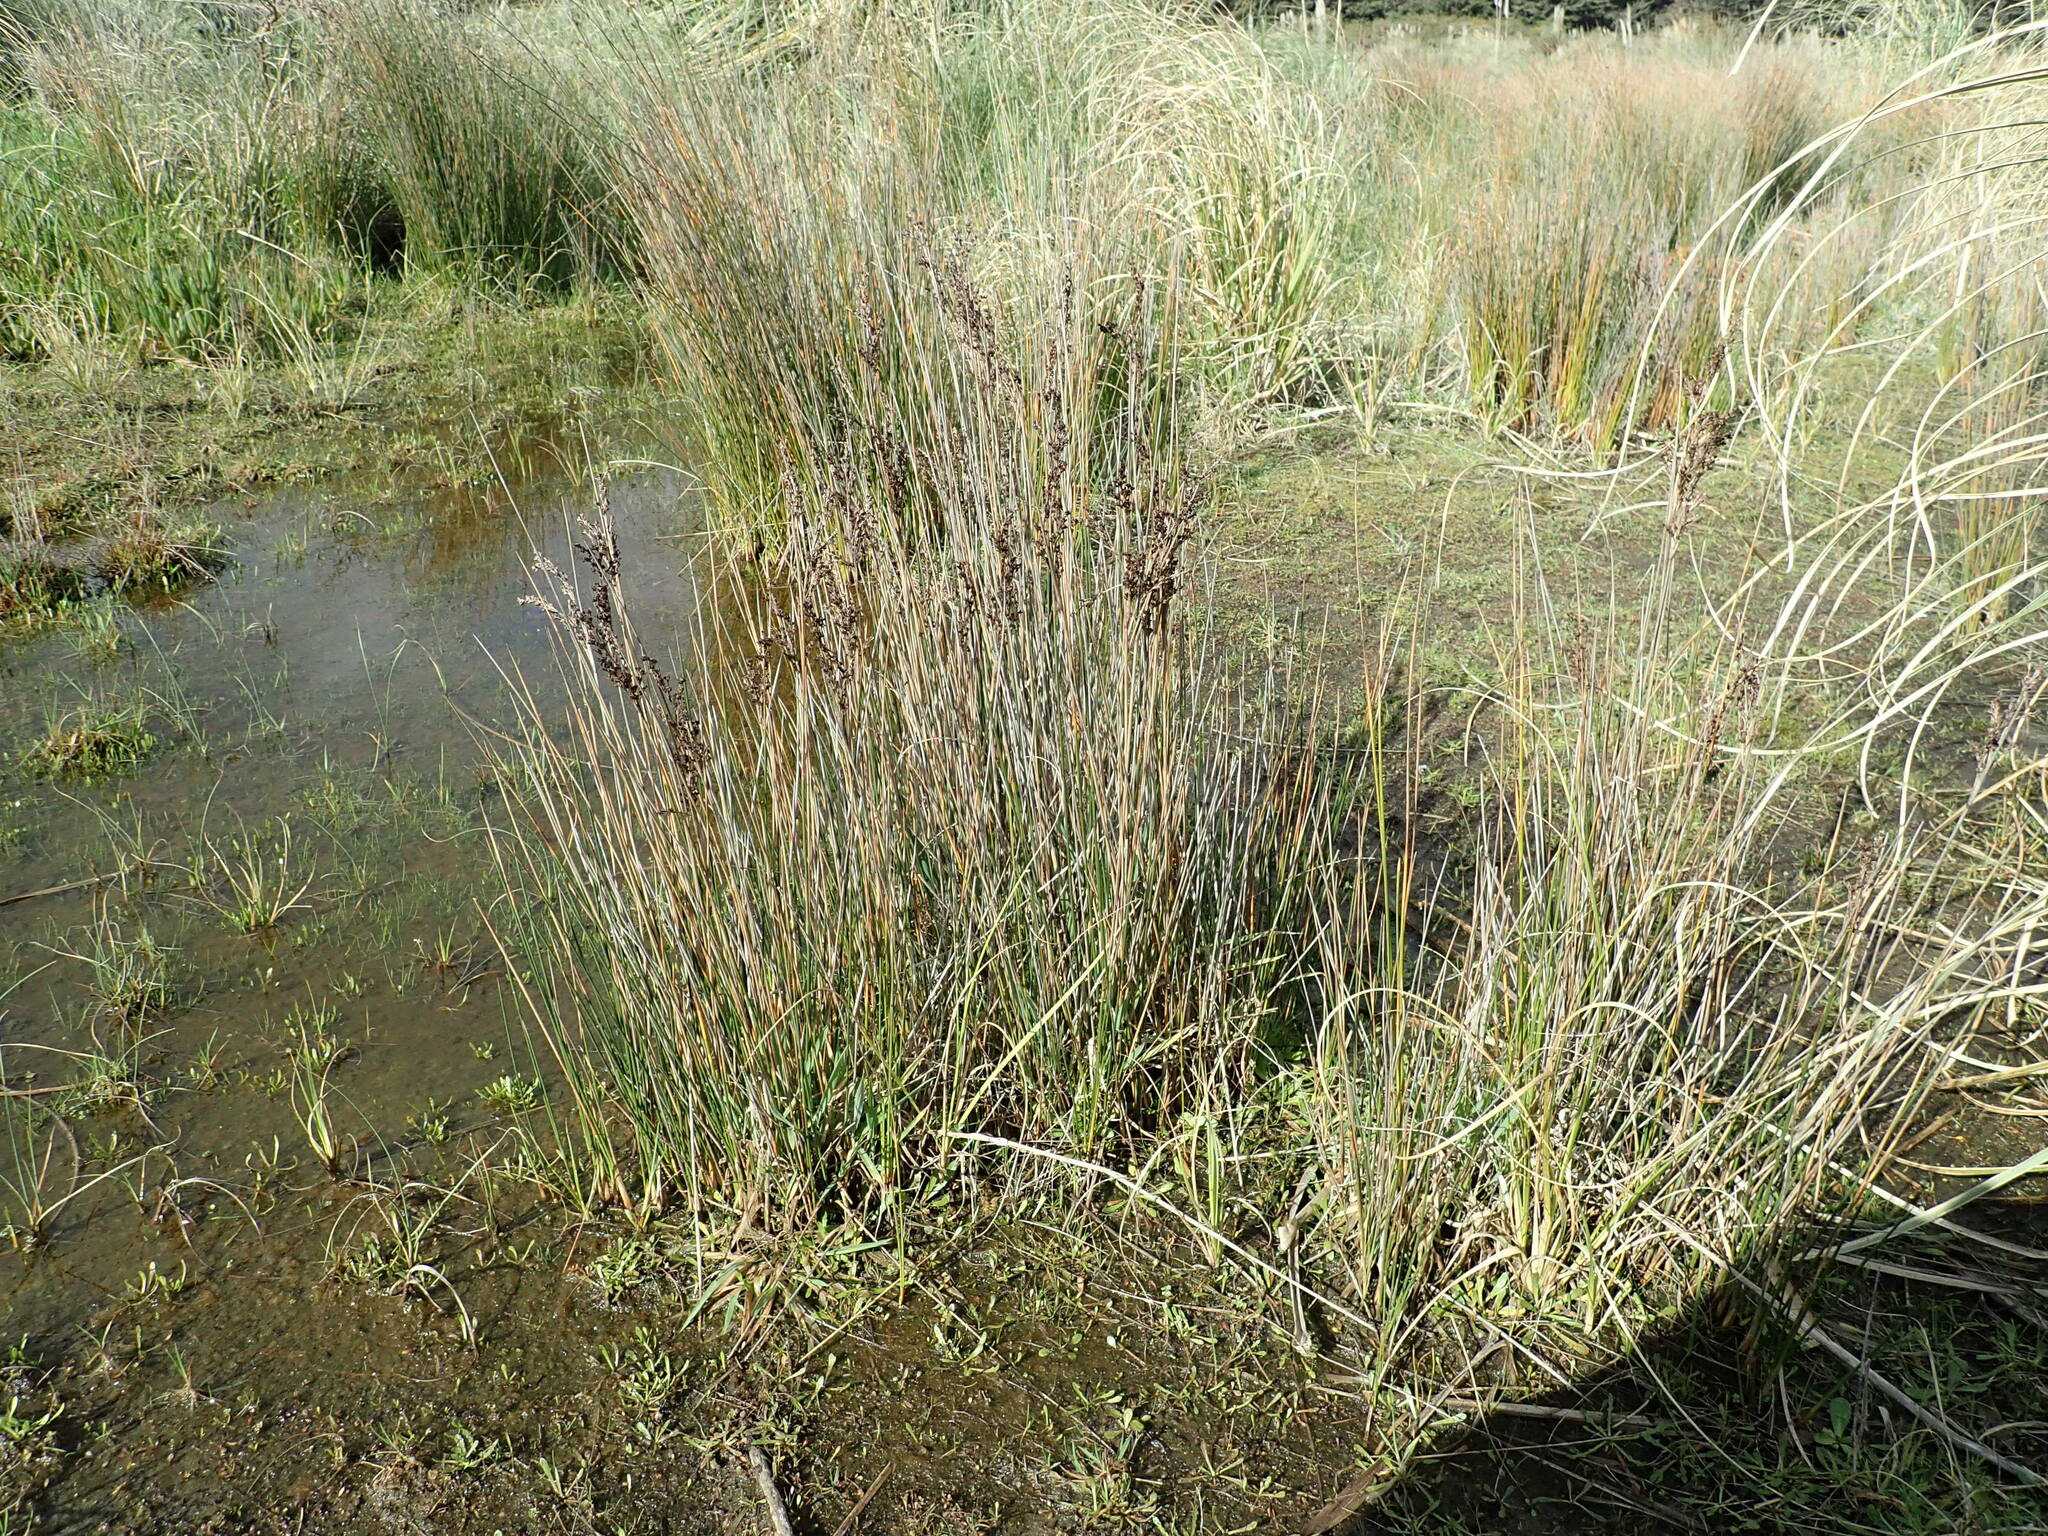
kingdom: Plantae
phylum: Tracheophyta
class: Liliopsida
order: Poales
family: Juncaceae
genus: Juncus
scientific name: Juncus kraussii
